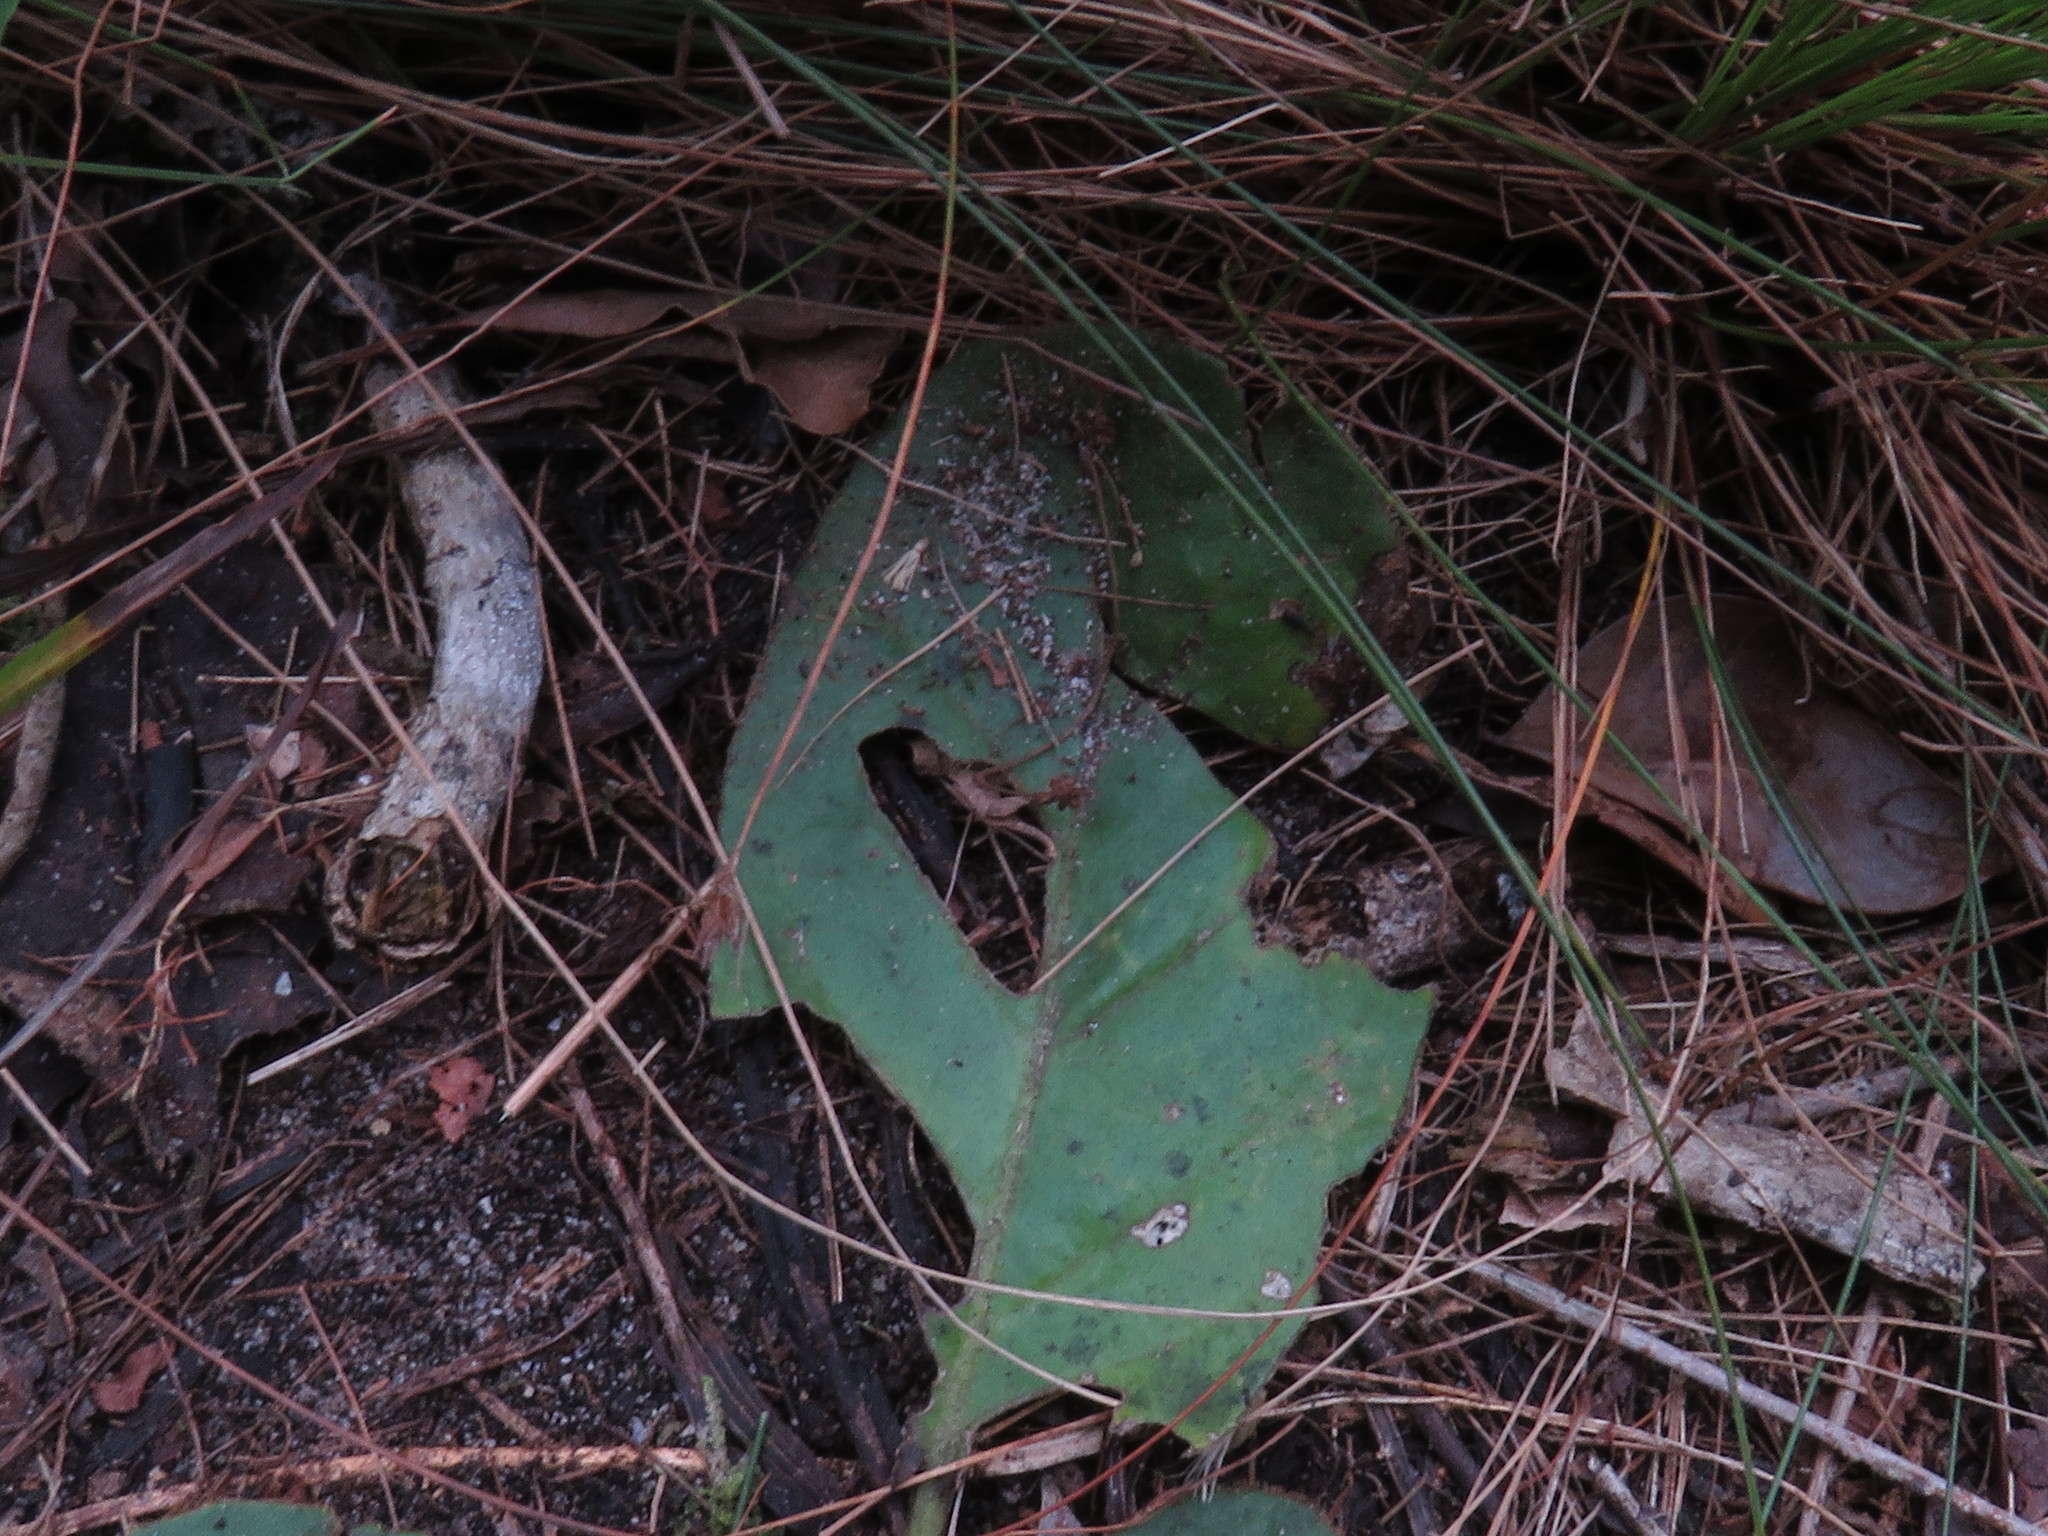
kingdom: Plantae
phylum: Tracheophyta
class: Magnoliopsida
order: Asterales
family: Asteraceae
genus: Piloselloides
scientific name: Piloselloides cordata
